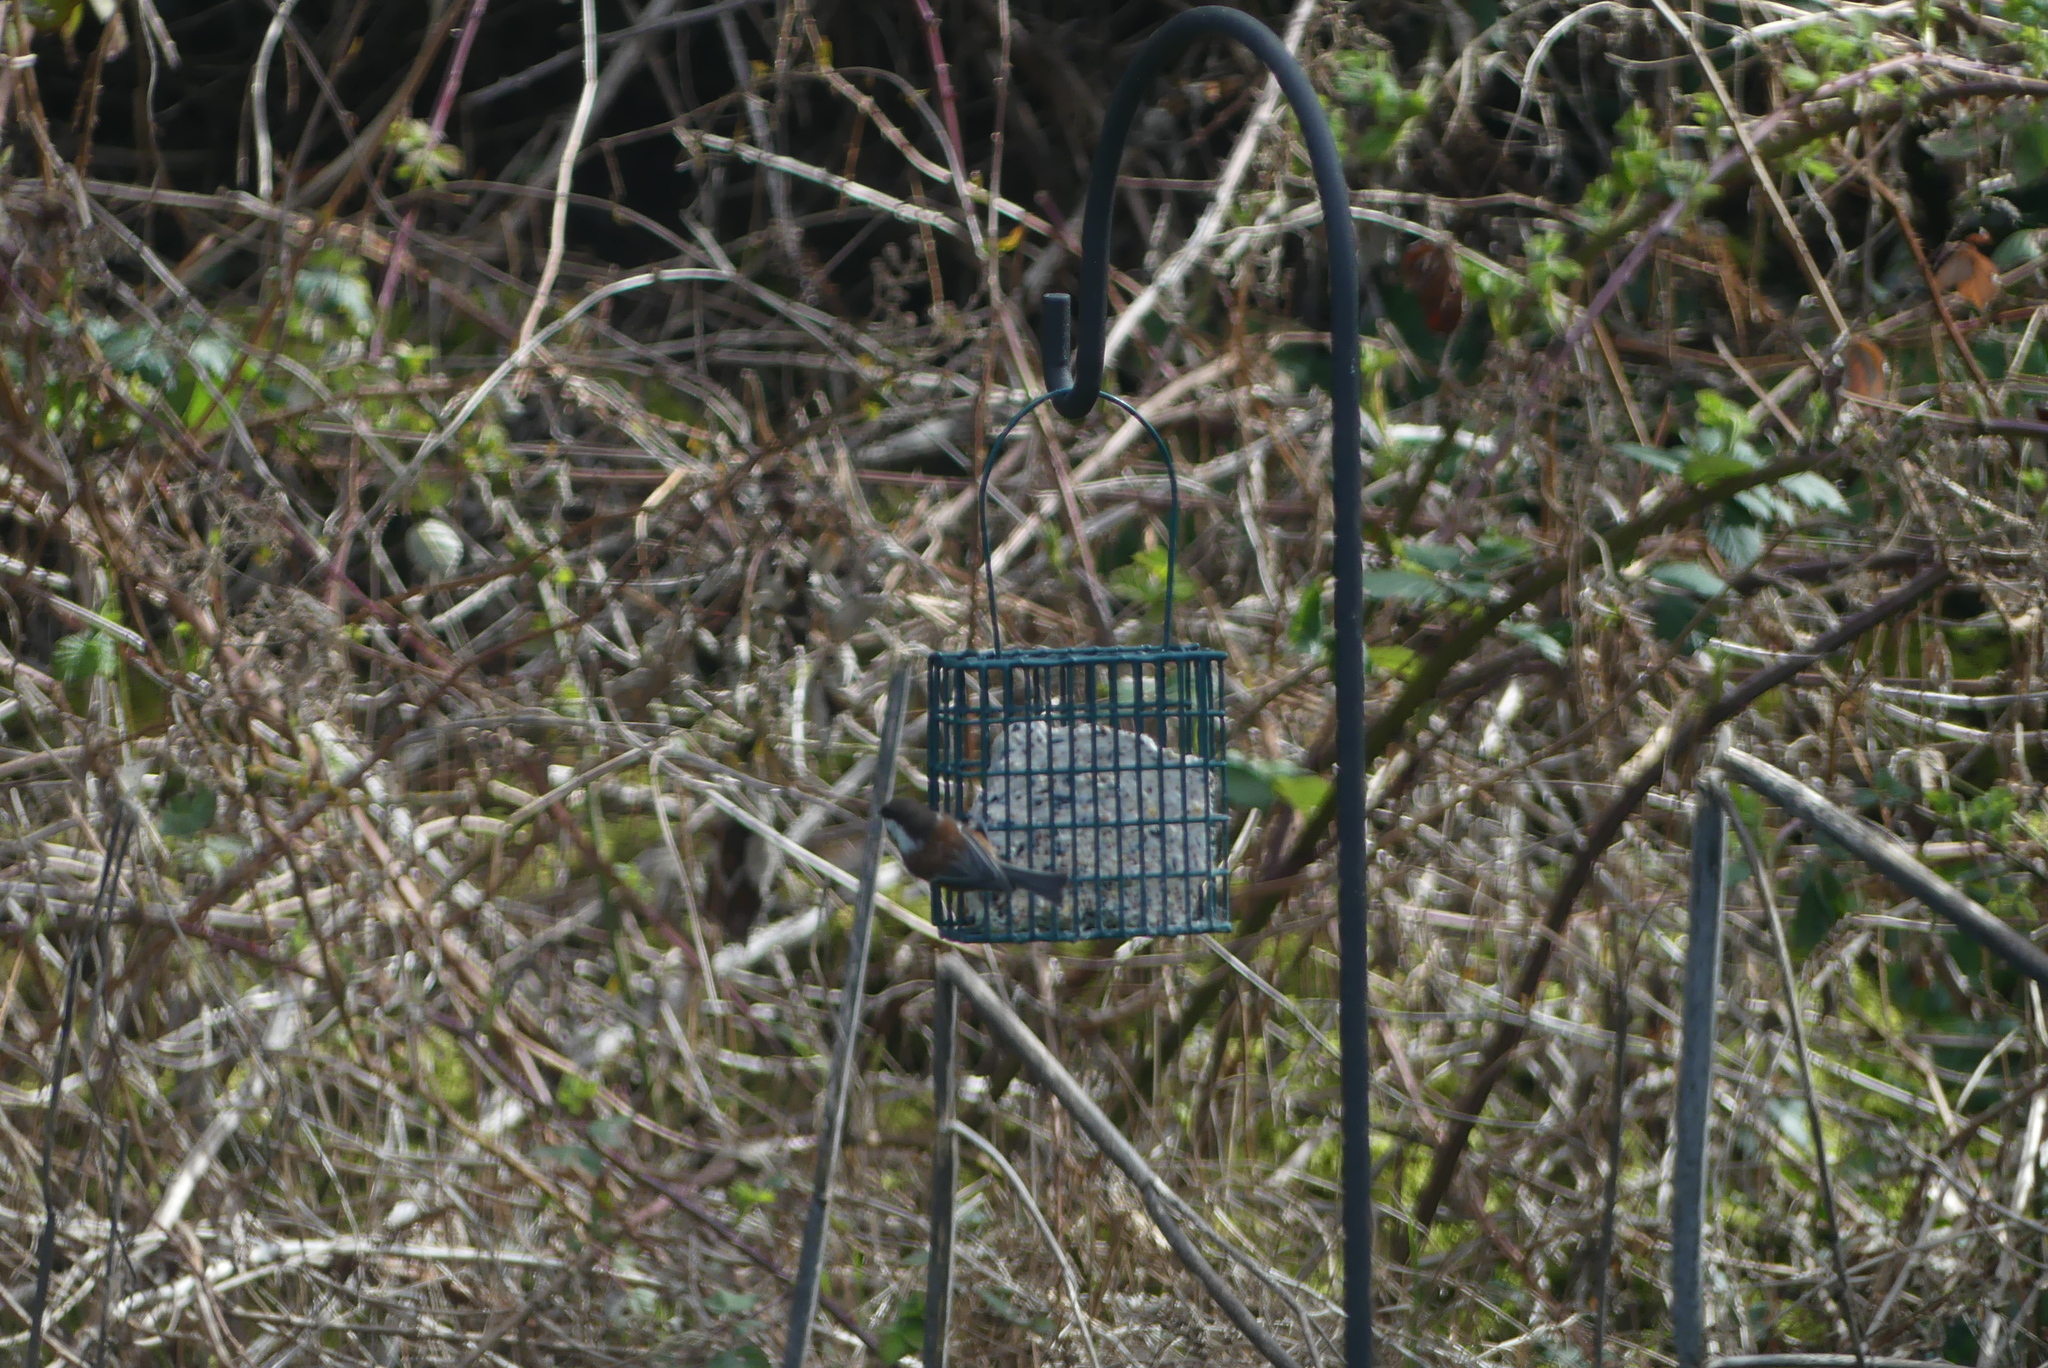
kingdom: Animalia
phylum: Chordata
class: Aves
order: Passeriformes
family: Paridae
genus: Poecile
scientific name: Poecile rufescens
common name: Chestnut-backed chickadee
